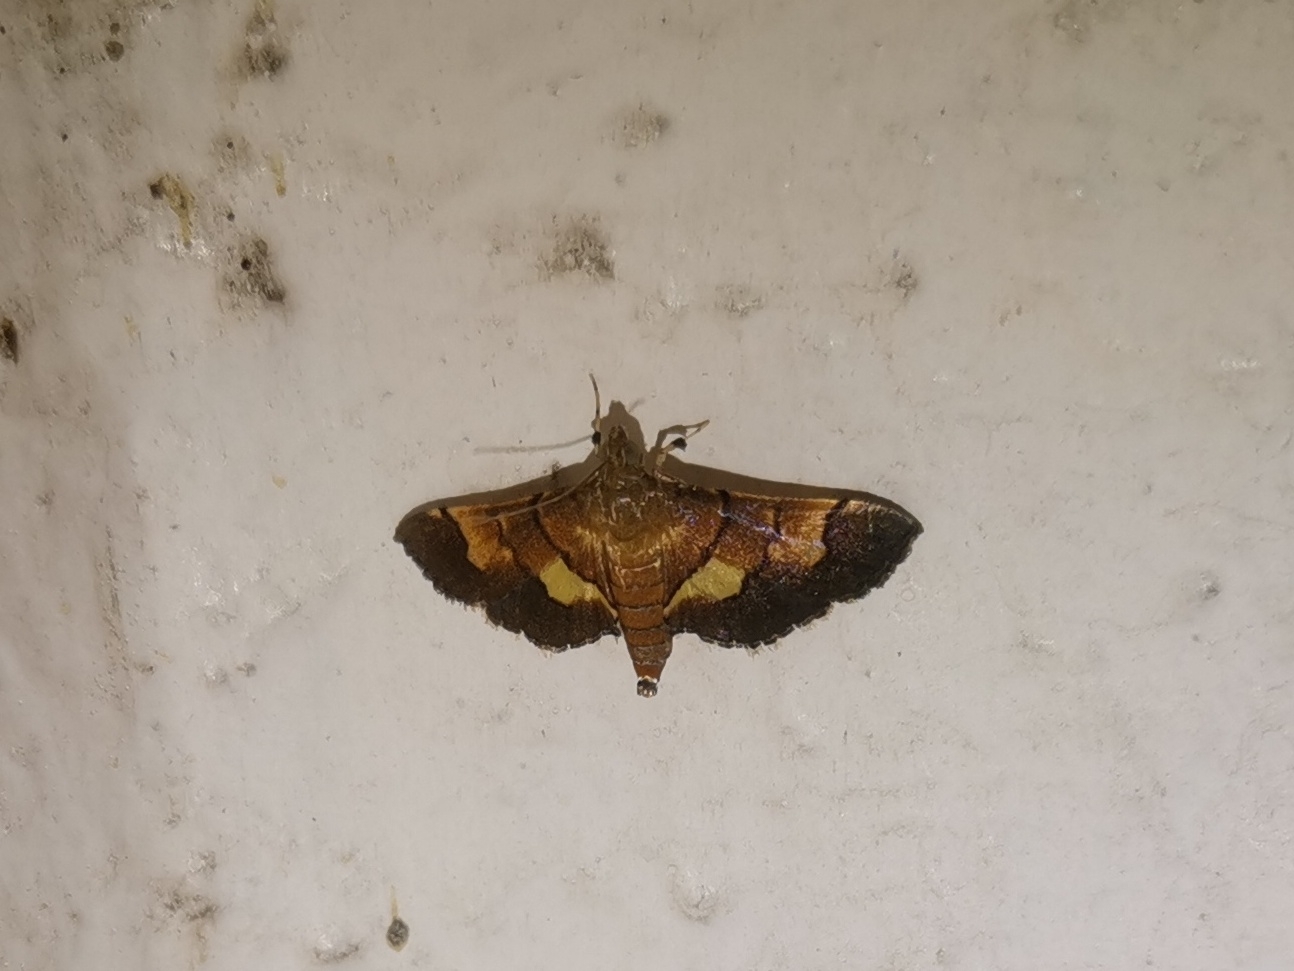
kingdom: Animalia
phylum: Arthropoda
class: Insecta
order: Lepidoptera
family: Crambidae
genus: Syngamia
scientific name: Syngamia latimarginalis
